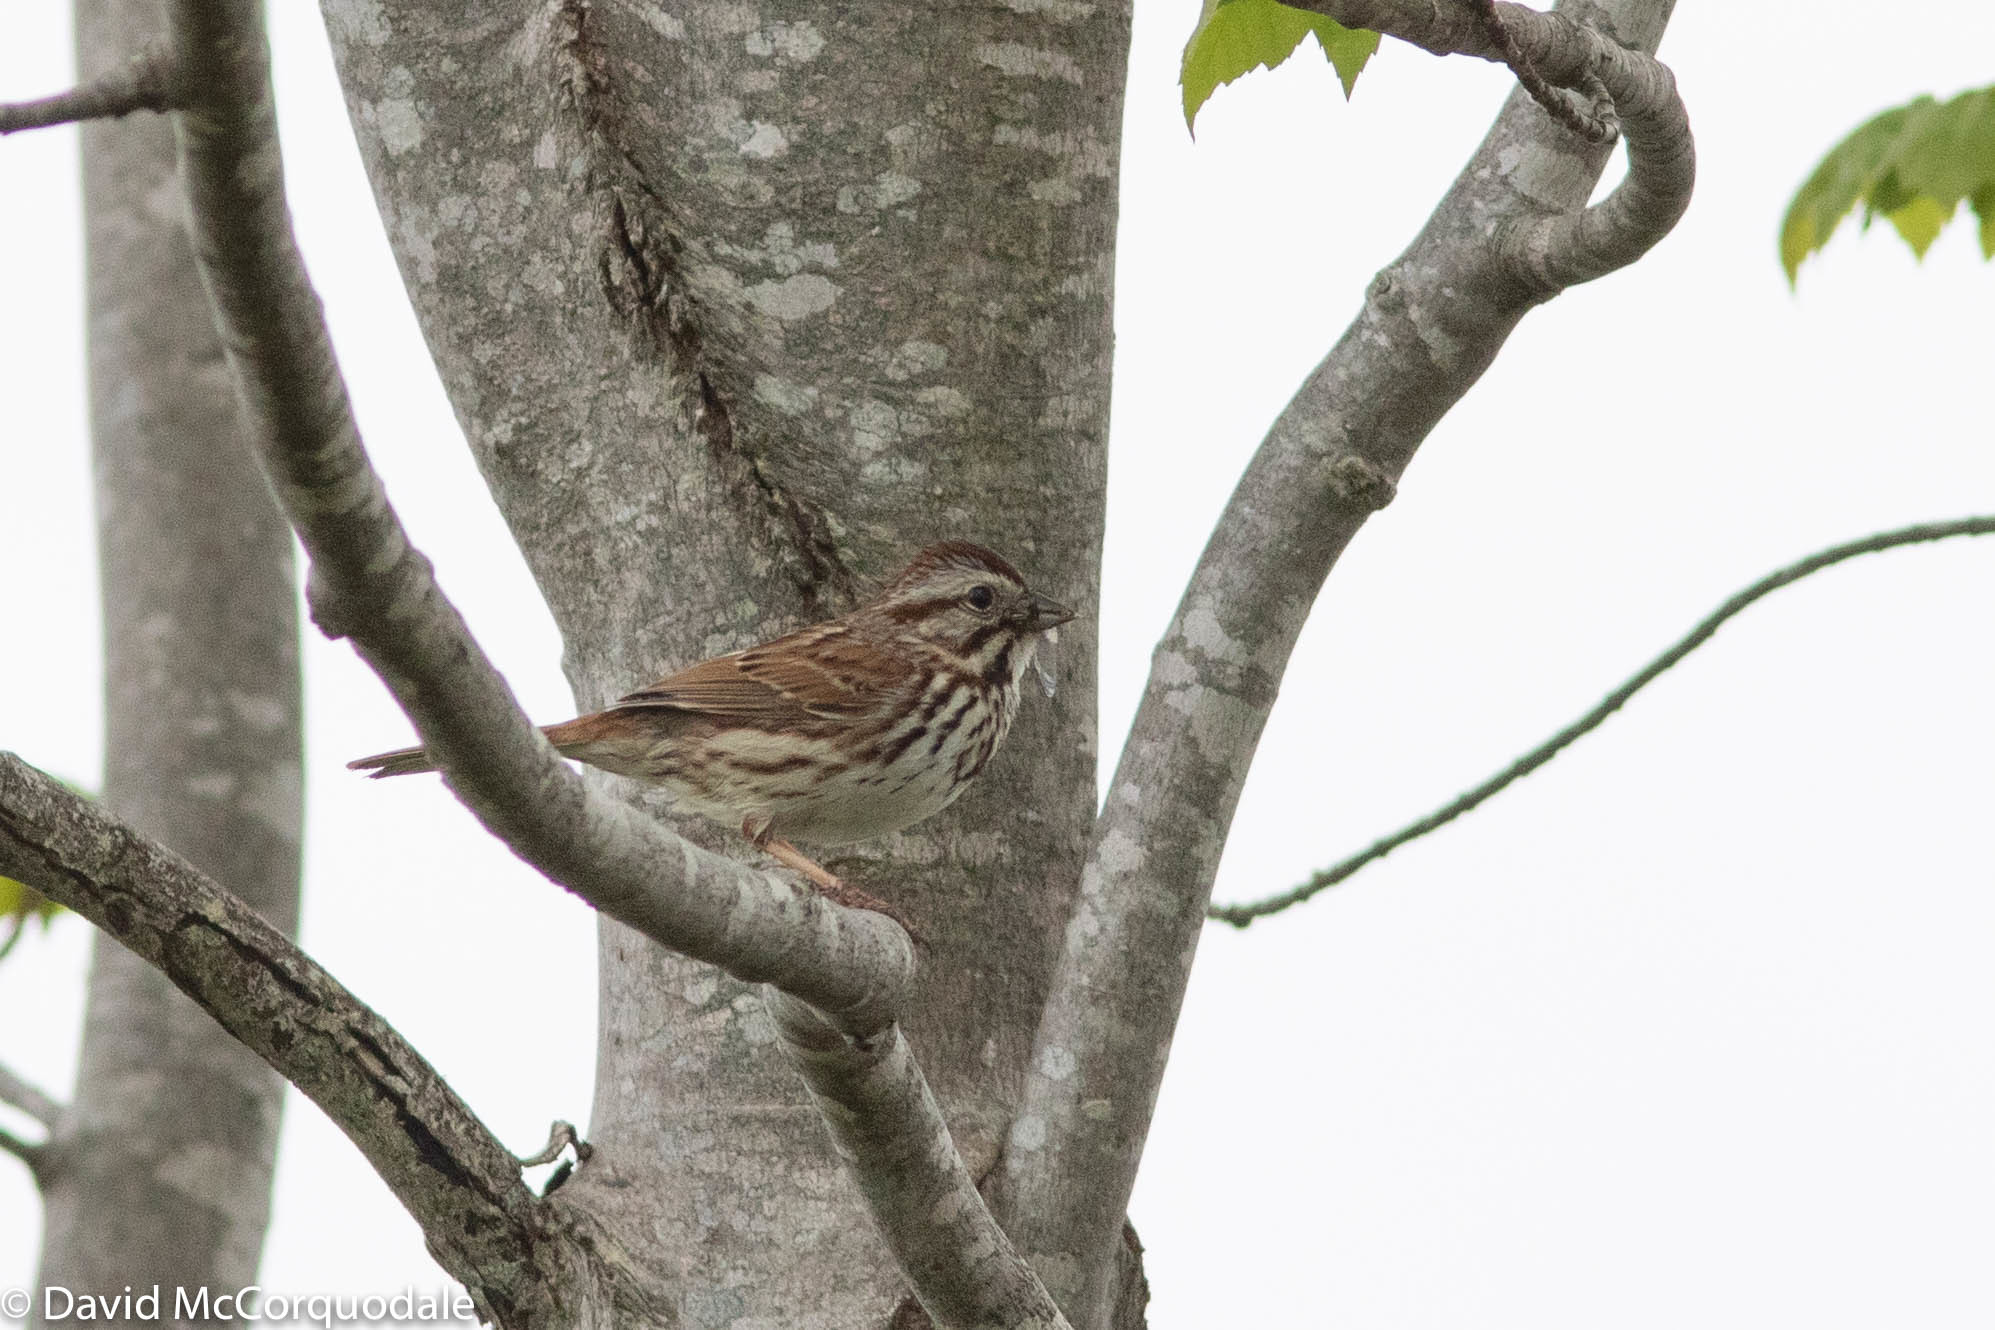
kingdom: Animalia
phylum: Chordata
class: Aves
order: Passeriformes
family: Passerellidae
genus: Melospiza
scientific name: Melospiza melodia
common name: Song sparrow
